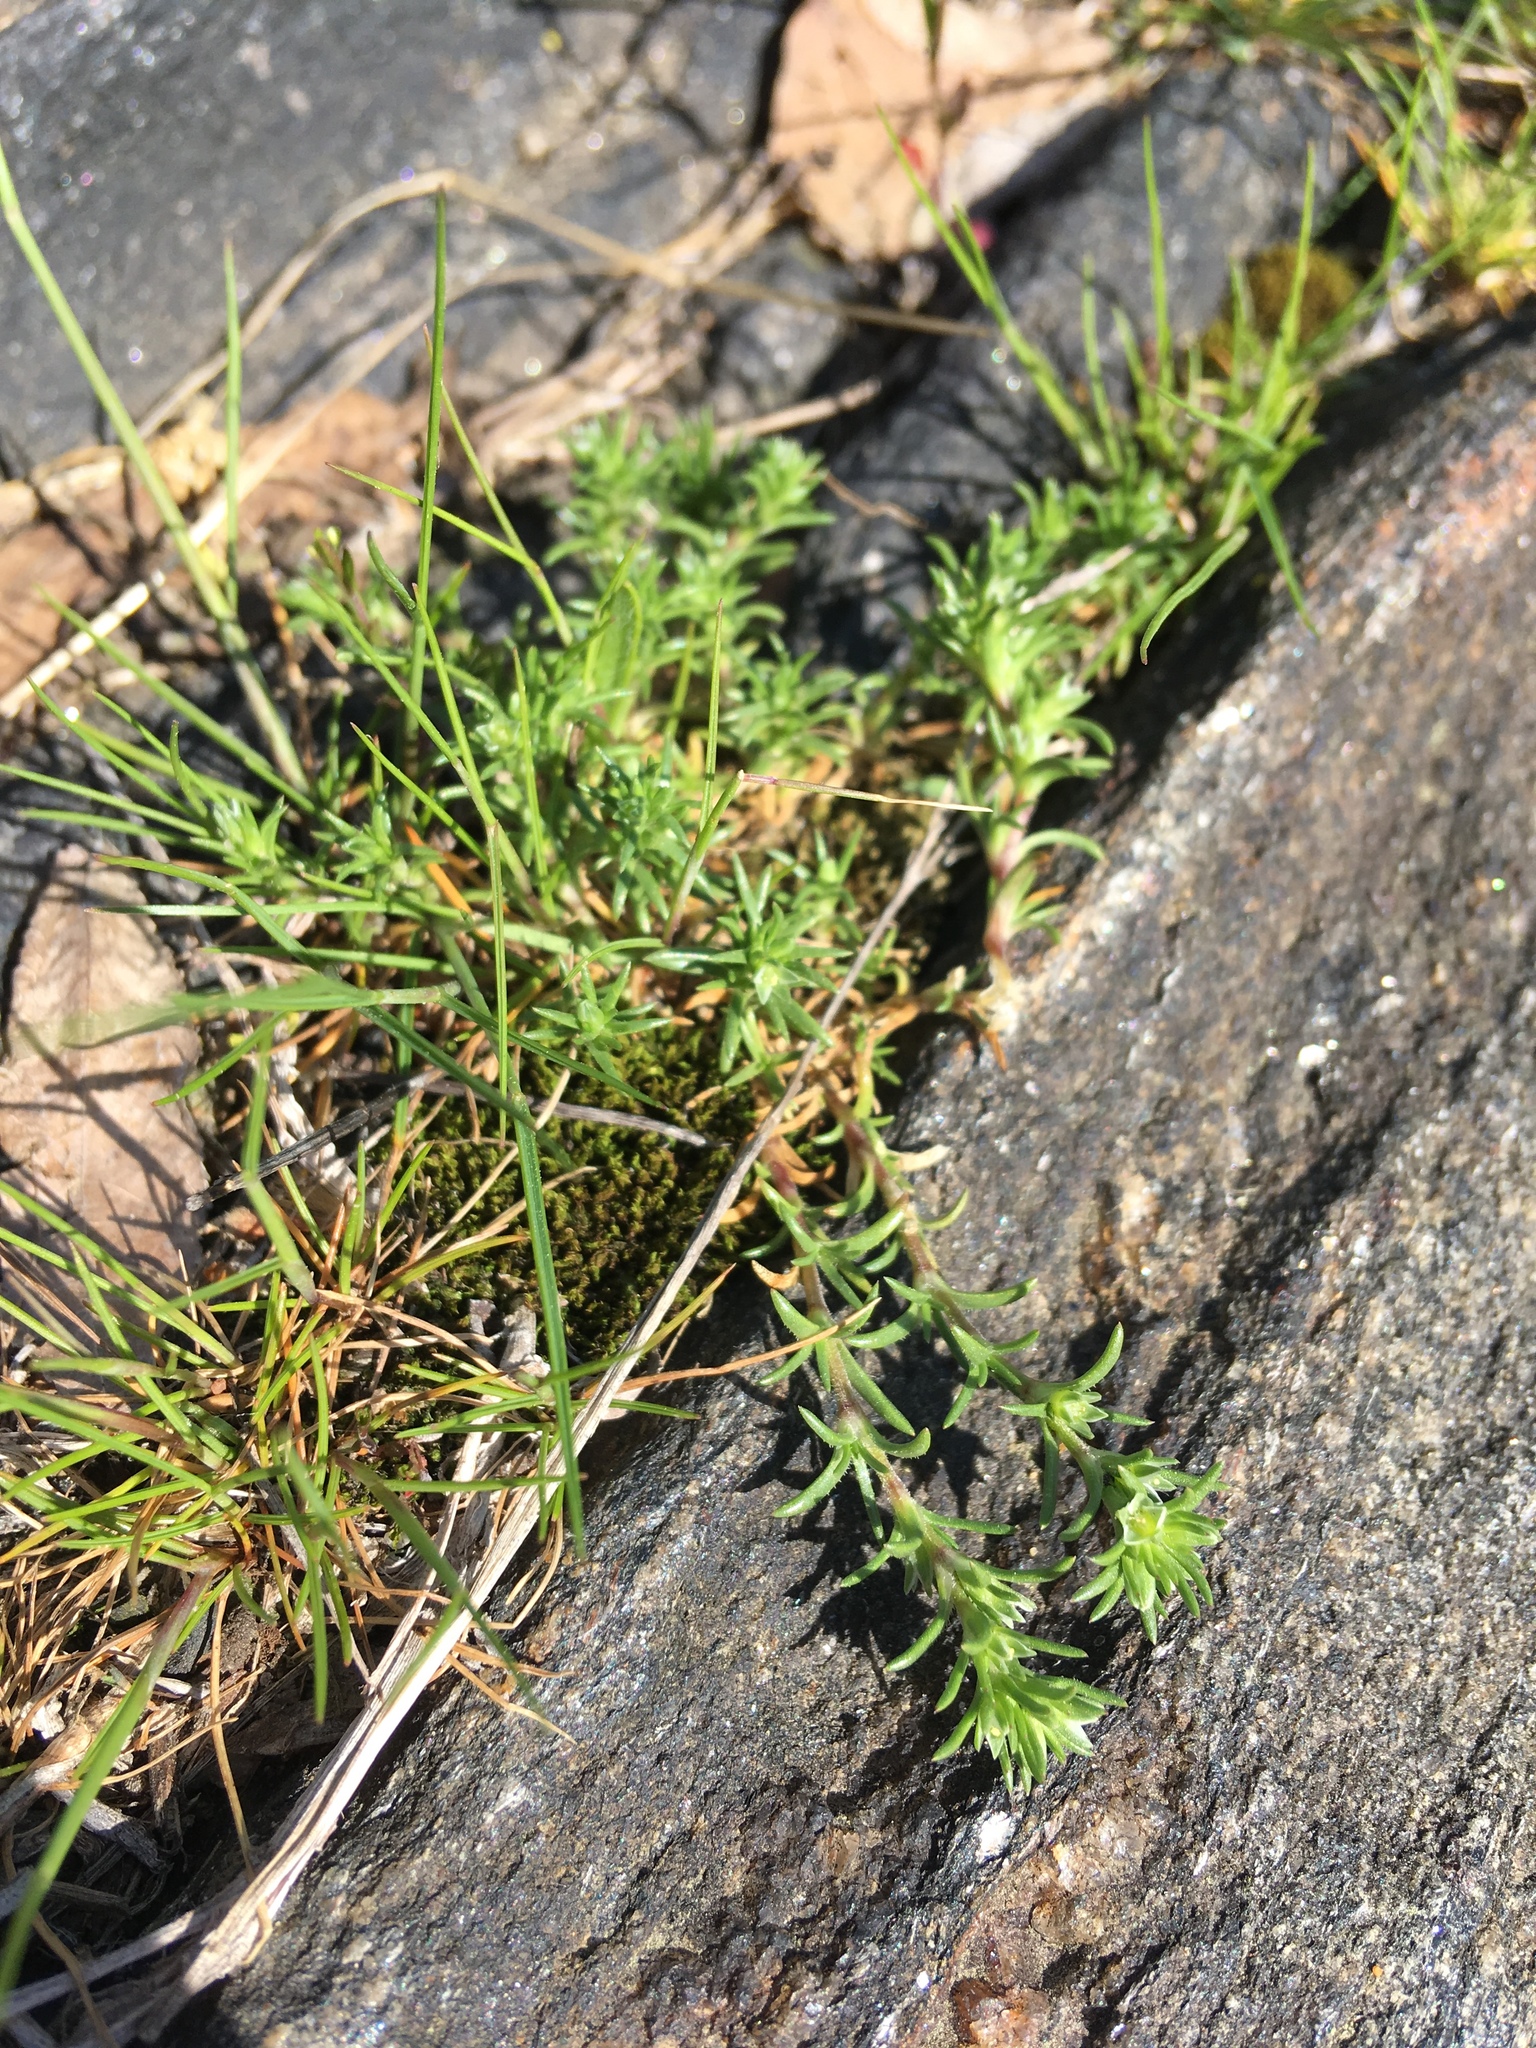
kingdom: Plantae
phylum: Tracheophyta
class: Magnoliopsida
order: Caryophyllales
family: Caryophyllaceae
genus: Scleranthus
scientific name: Scleranthus annuus
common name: Annual knawel
